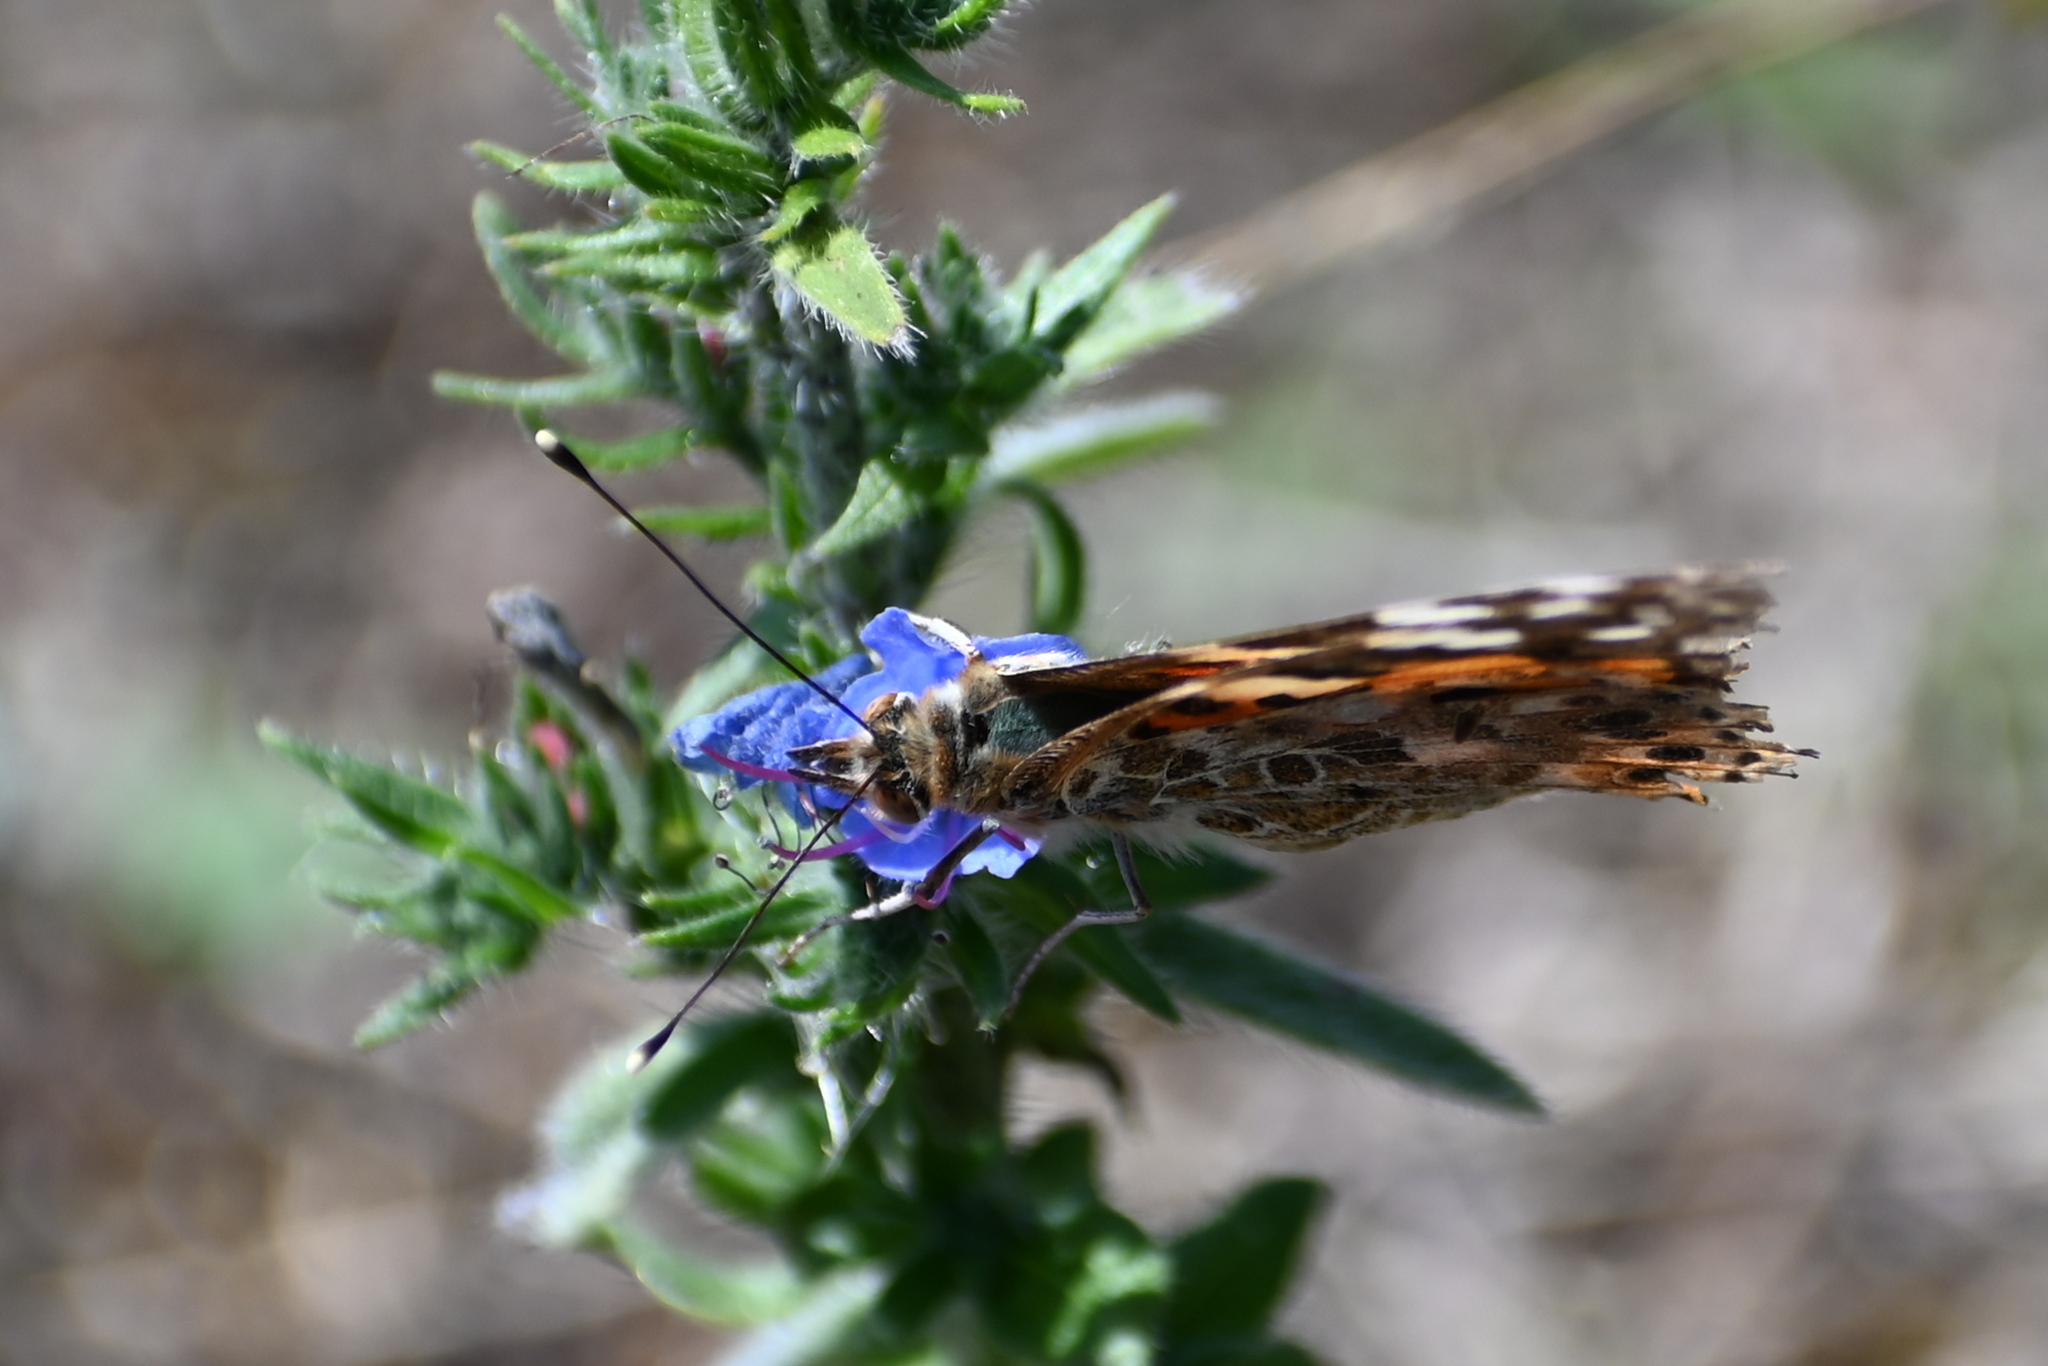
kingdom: Animalia
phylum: Arthropoda
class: Insecta
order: Lepidoptera
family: Nymphalidae
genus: Vanessa
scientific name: Vanessa cardui
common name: Painted lady
